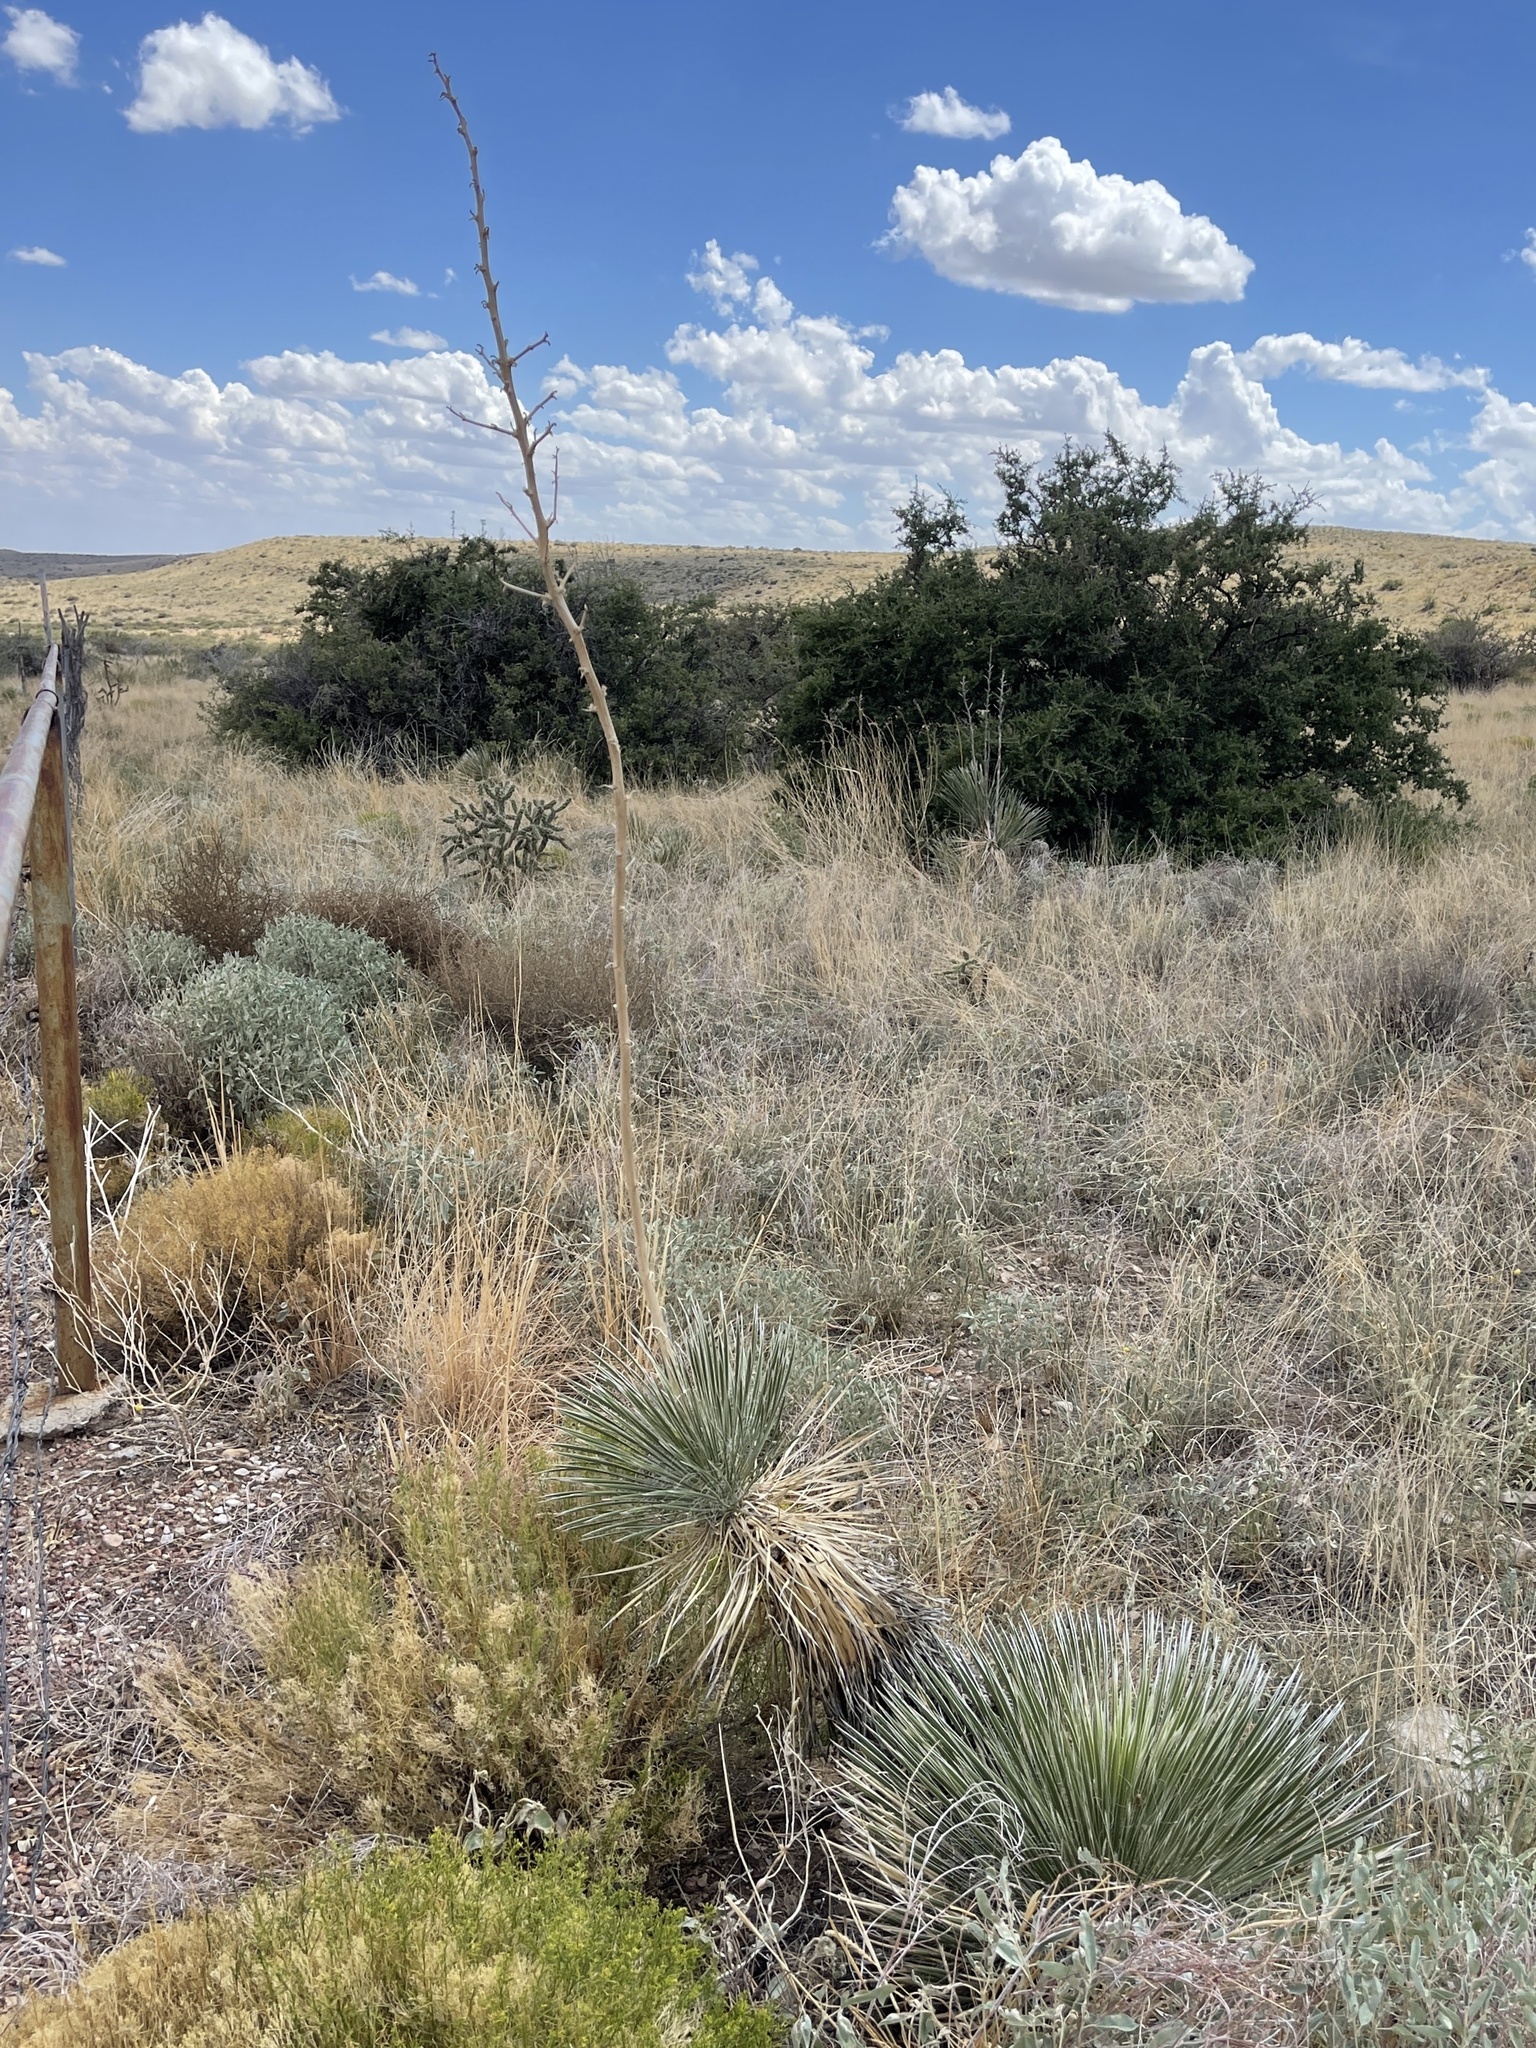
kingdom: Plantae
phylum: Tracheophyta
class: Liliopsida
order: Asparagales
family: Asparagaceae
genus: Yucca
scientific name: Yucca elata
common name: Palmella
